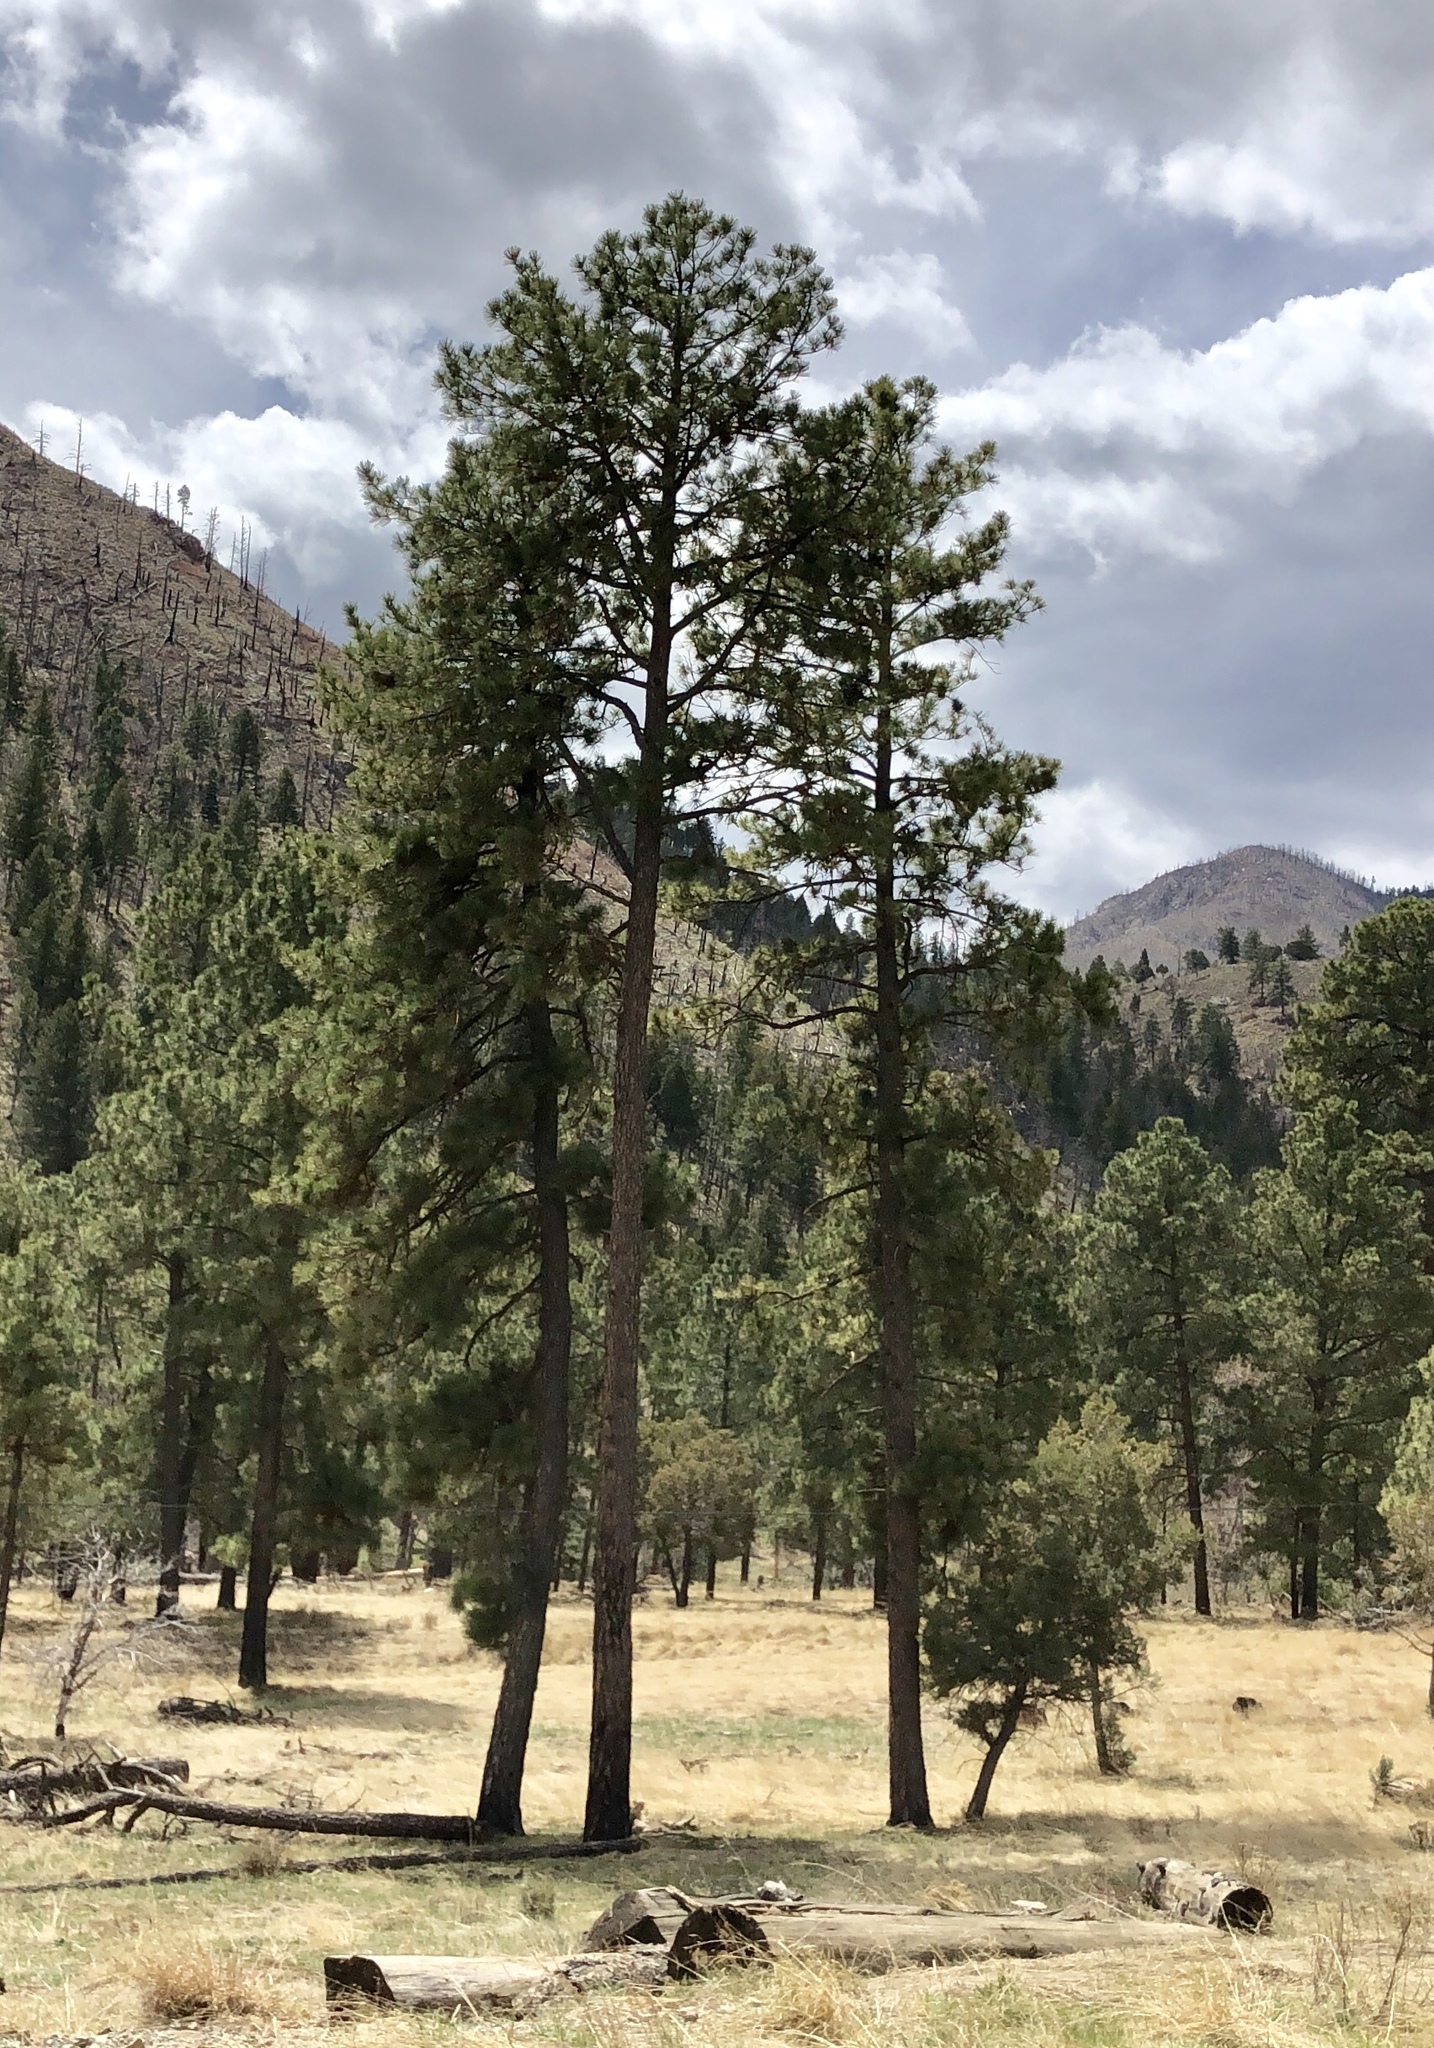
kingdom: Plantae
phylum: Tracheophyta
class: Pinopsida
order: Pinales
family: Pinaceae
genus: Pinus
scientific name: Pinus ponderosa
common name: Western yellow-pine
